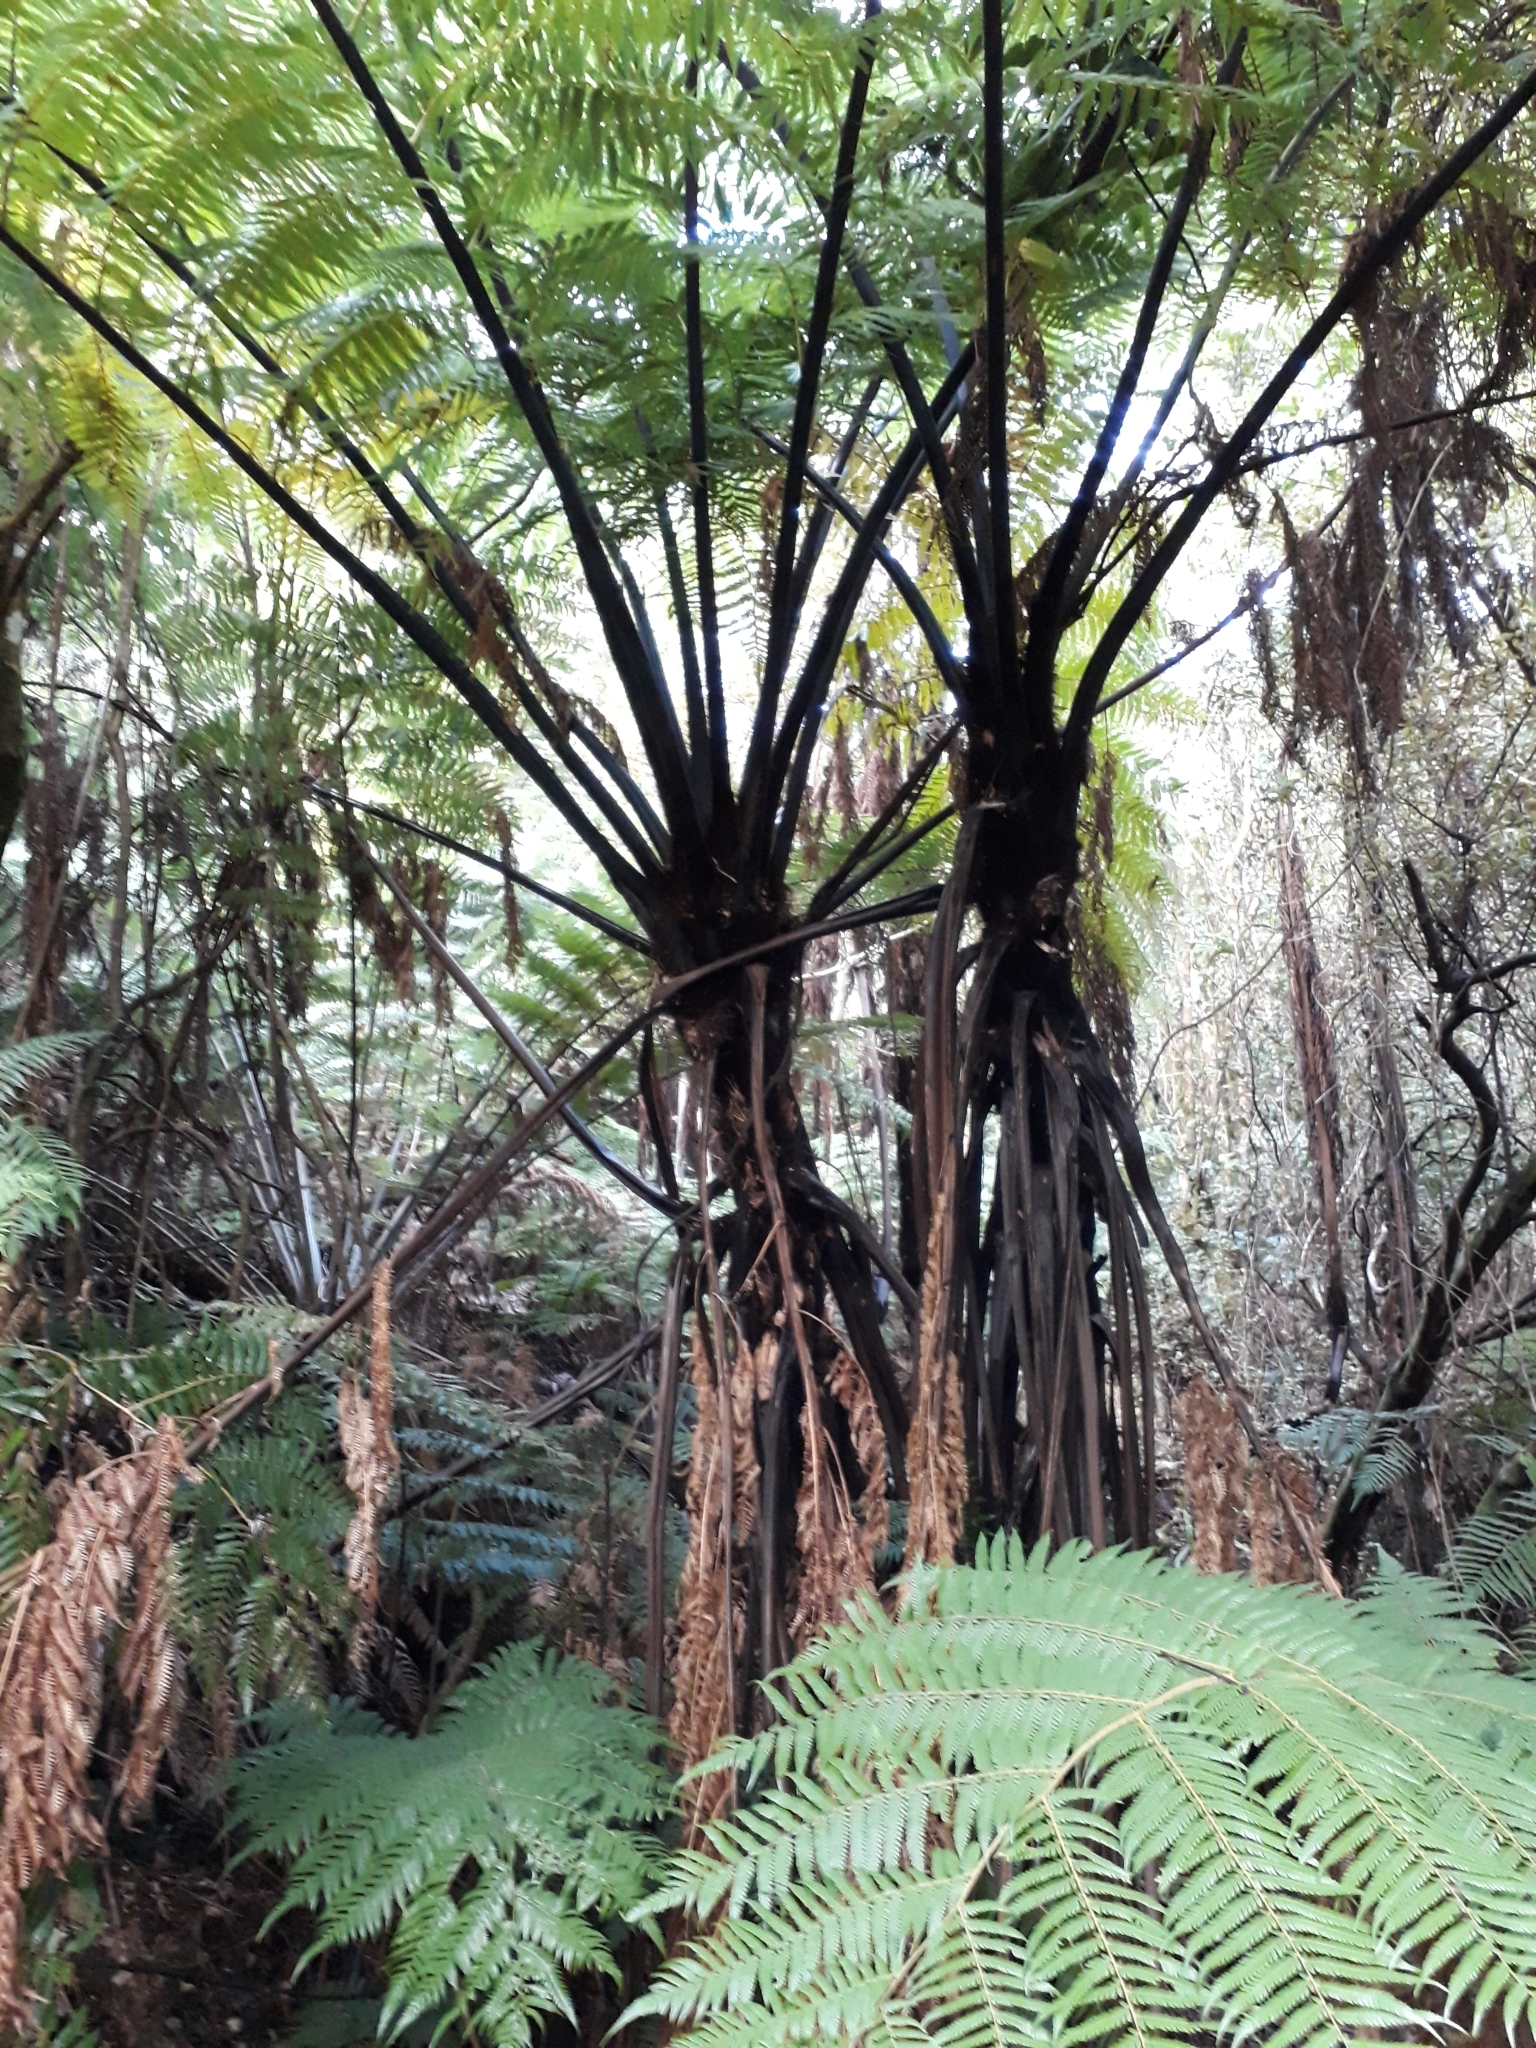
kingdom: Plantae
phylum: Tracheophyta
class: Polypodiopsida
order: Cyatheales
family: Cyatheaceae
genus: Sphaeropteris
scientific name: Sphaeropteris medullaris
